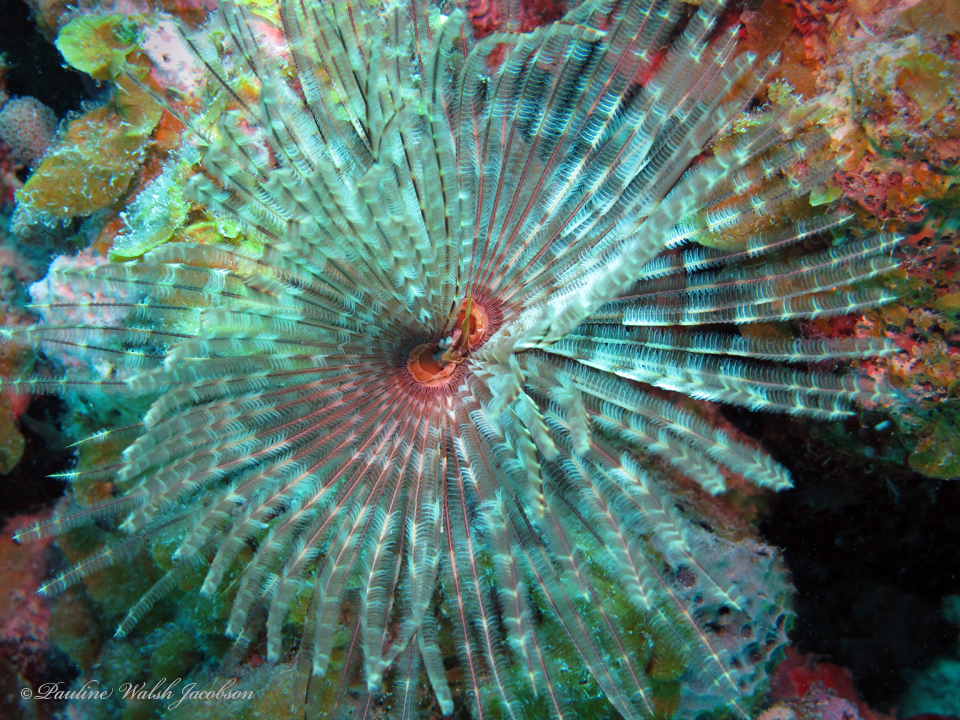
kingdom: Animalia
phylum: Annelida
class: Polychaeta
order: Sabellida
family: Sabellidae
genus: Sabellastarte
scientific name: Sabellastarte magnifica
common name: Giant feather-duster worm
